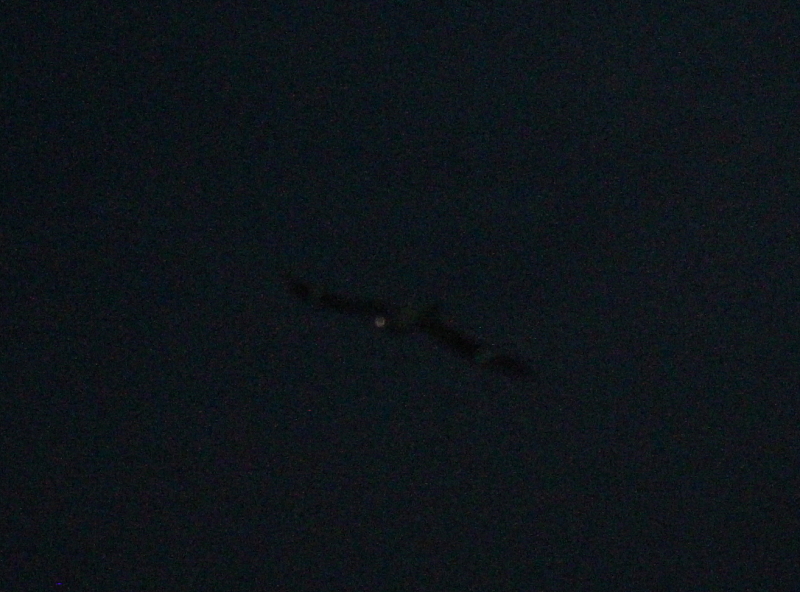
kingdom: Animalia
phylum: Chordata
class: Aves
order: Caprimulgiformes
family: Caprimulgidae
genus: Chordeiles
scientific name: Chordeiles minor
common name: Common nighthawk
